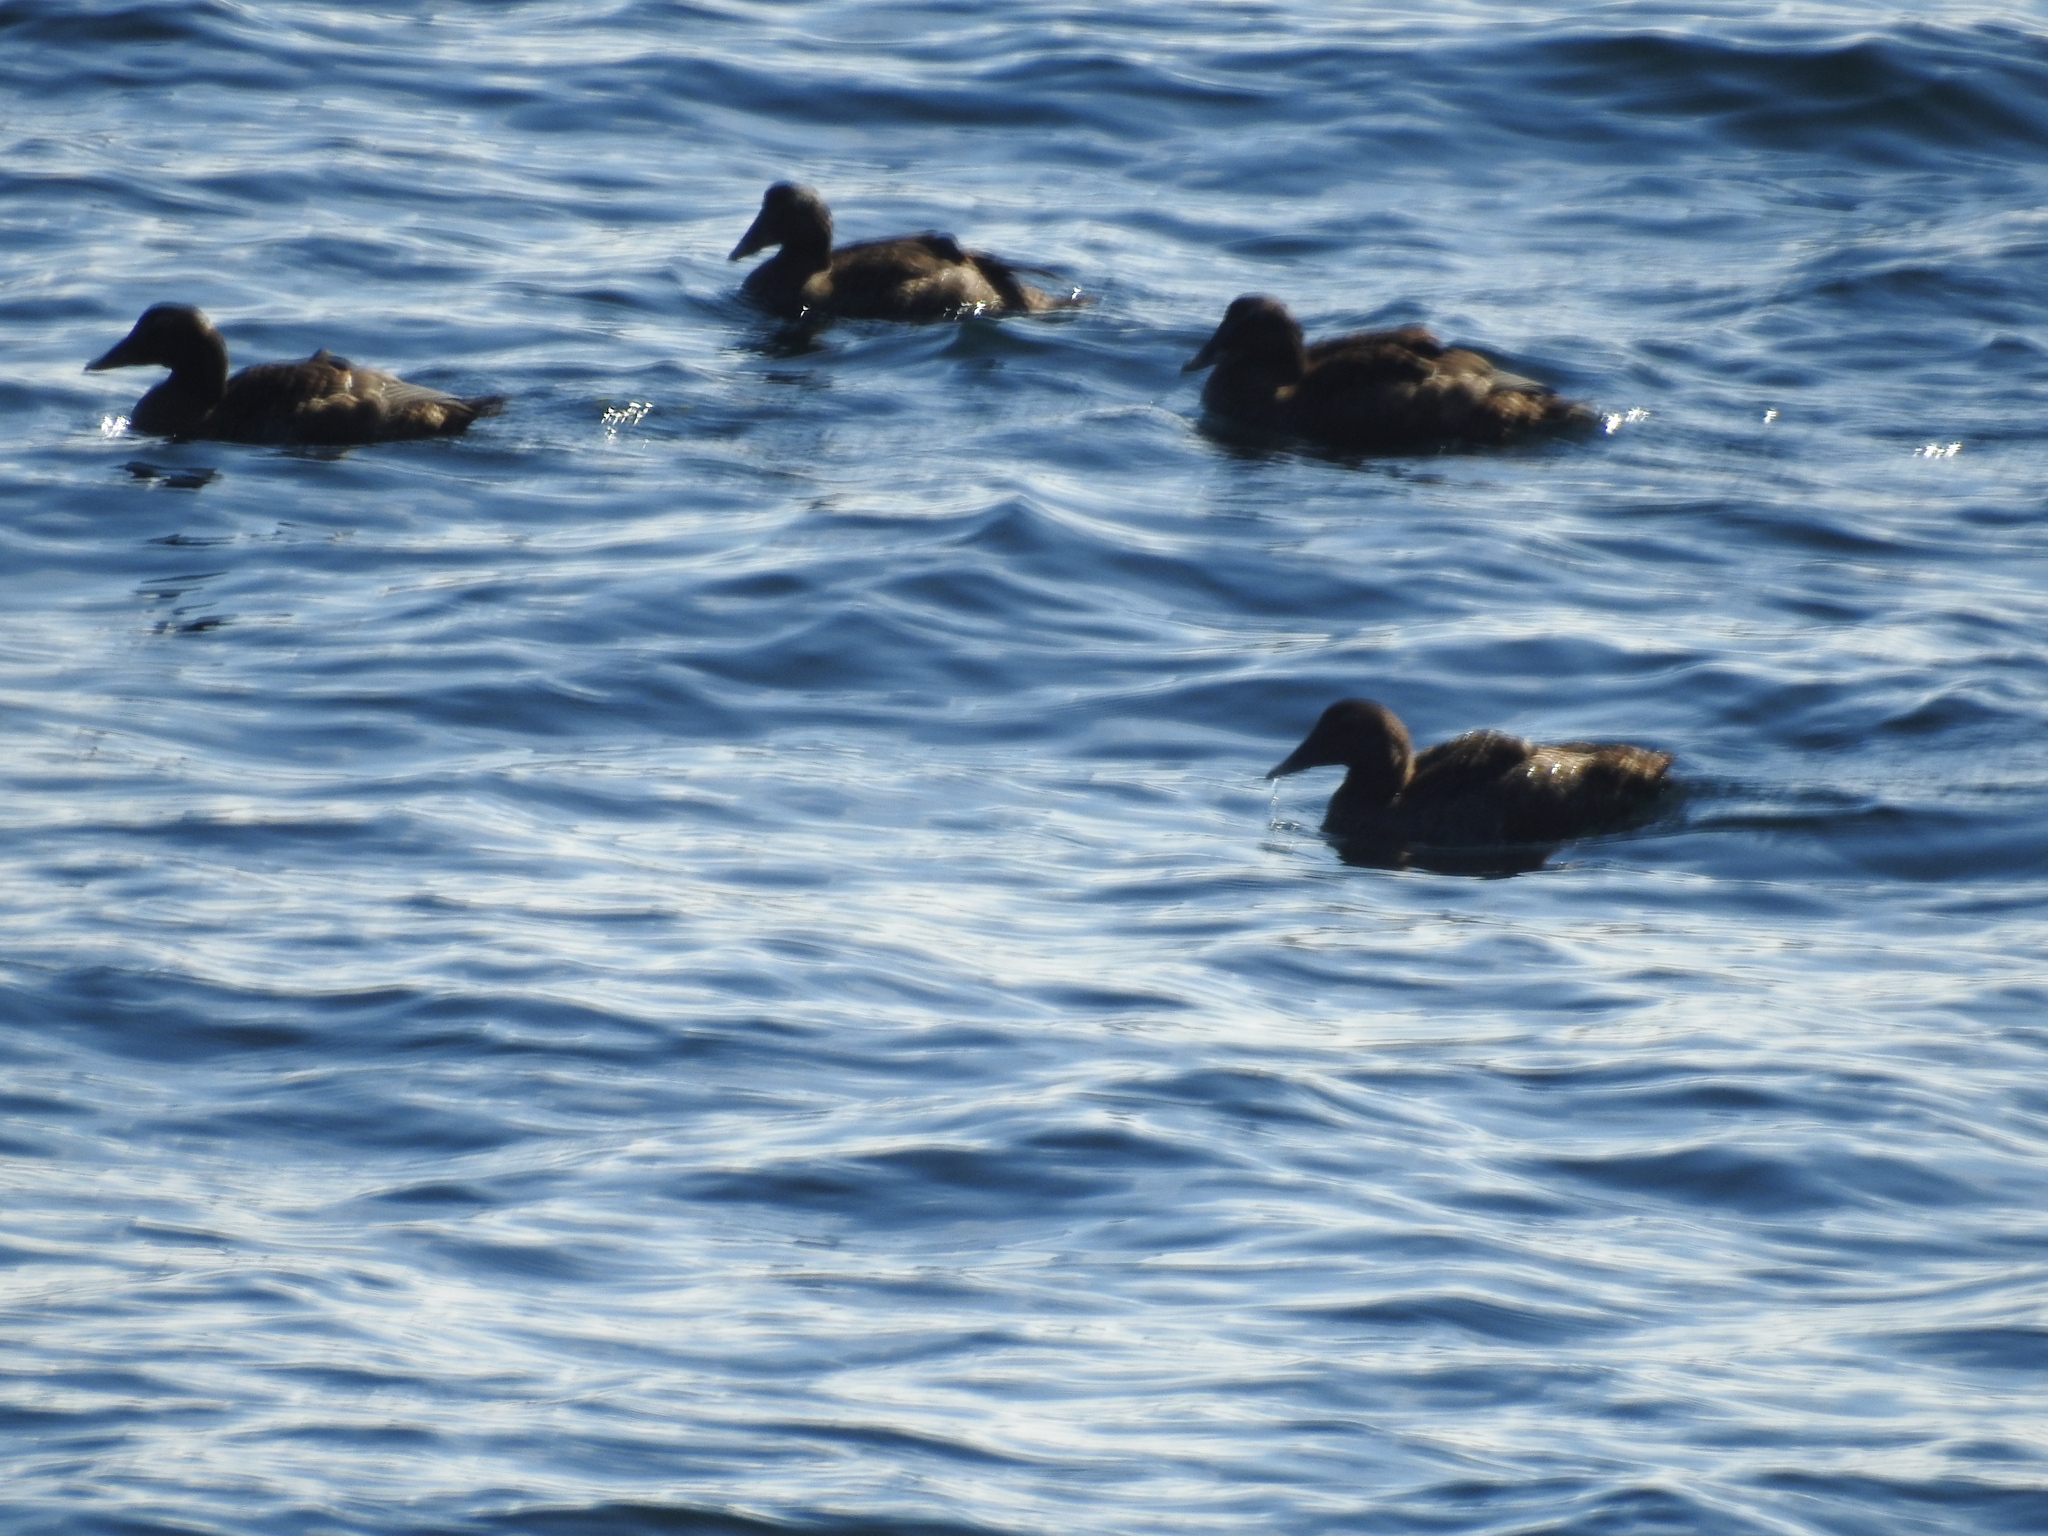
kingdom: Animalia
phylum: Chordata
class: Aves
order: Anseriformes
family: Anatidae
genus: Somateria
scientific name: Somateria mollissima
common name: Common eider
